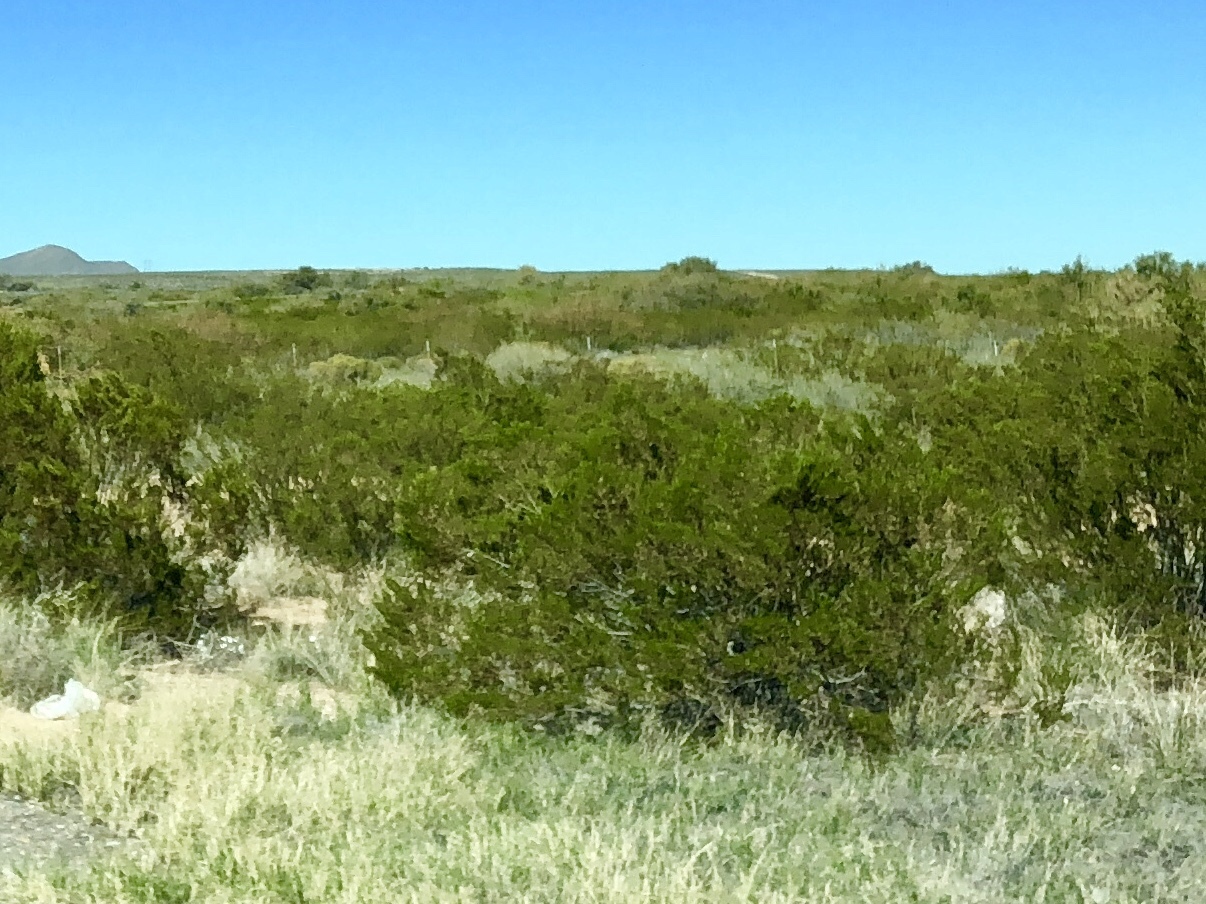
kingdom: Plantae
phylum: Tracheophyta
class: Magnoliopsida
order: Zygophyllales
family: Zygophyllaceae
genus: Larrea
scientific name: Larrea tridentata
